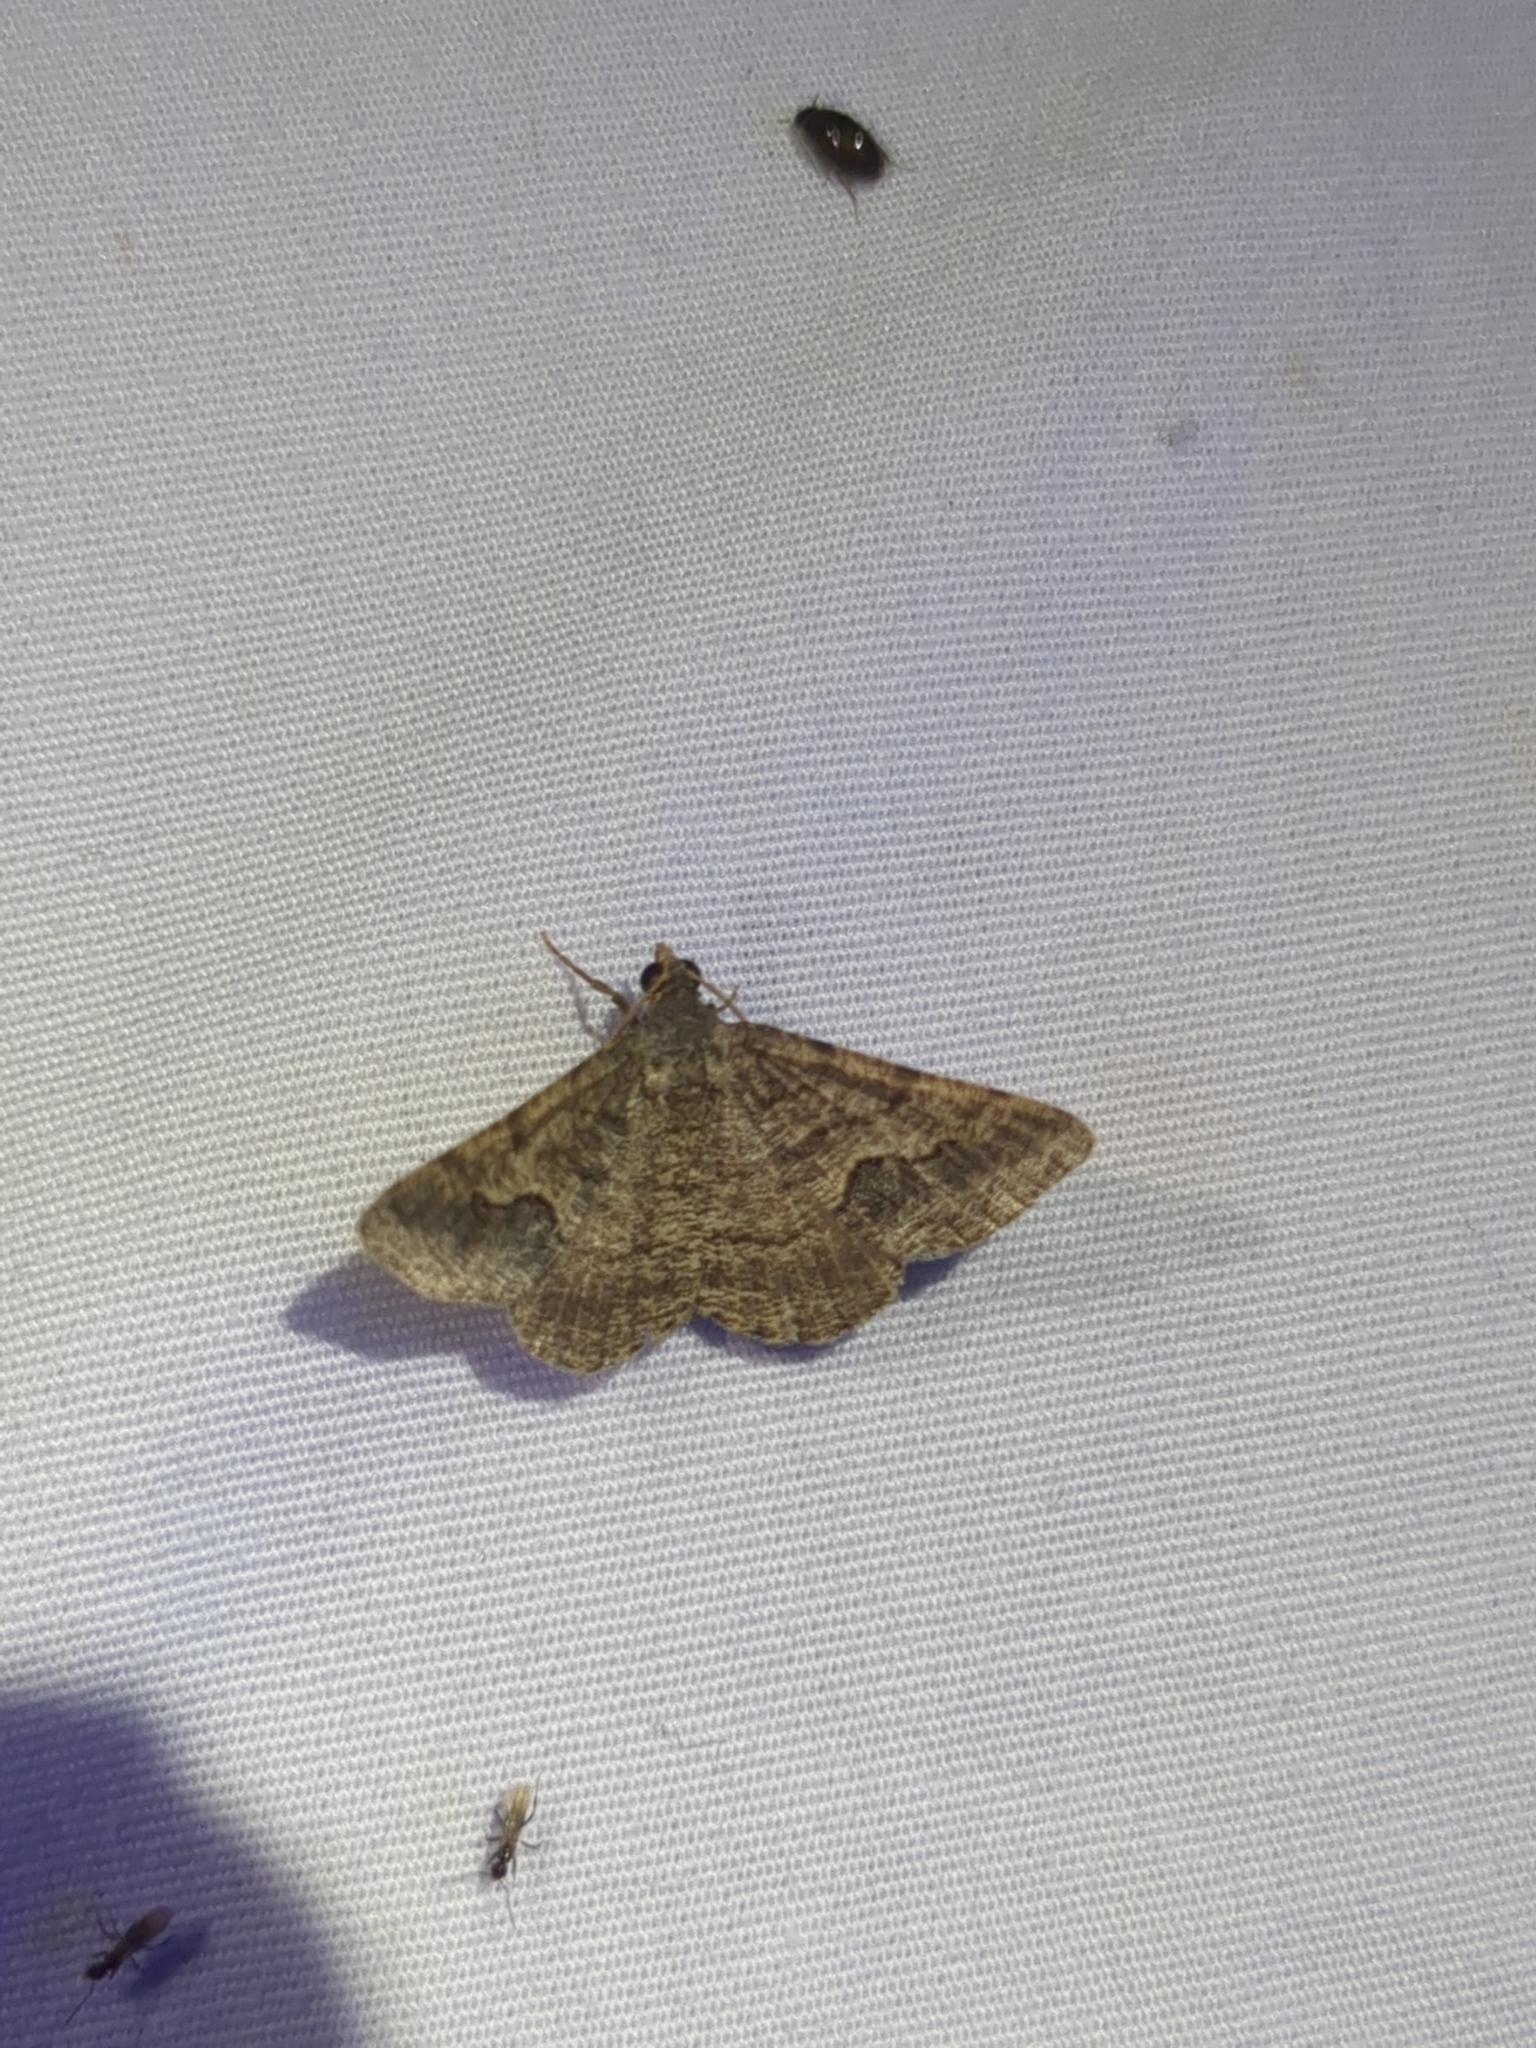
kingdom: Animalia
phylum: Arthropoda
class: Insecta
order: Lepidoptera
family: Geometridae
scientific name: Geometridae
